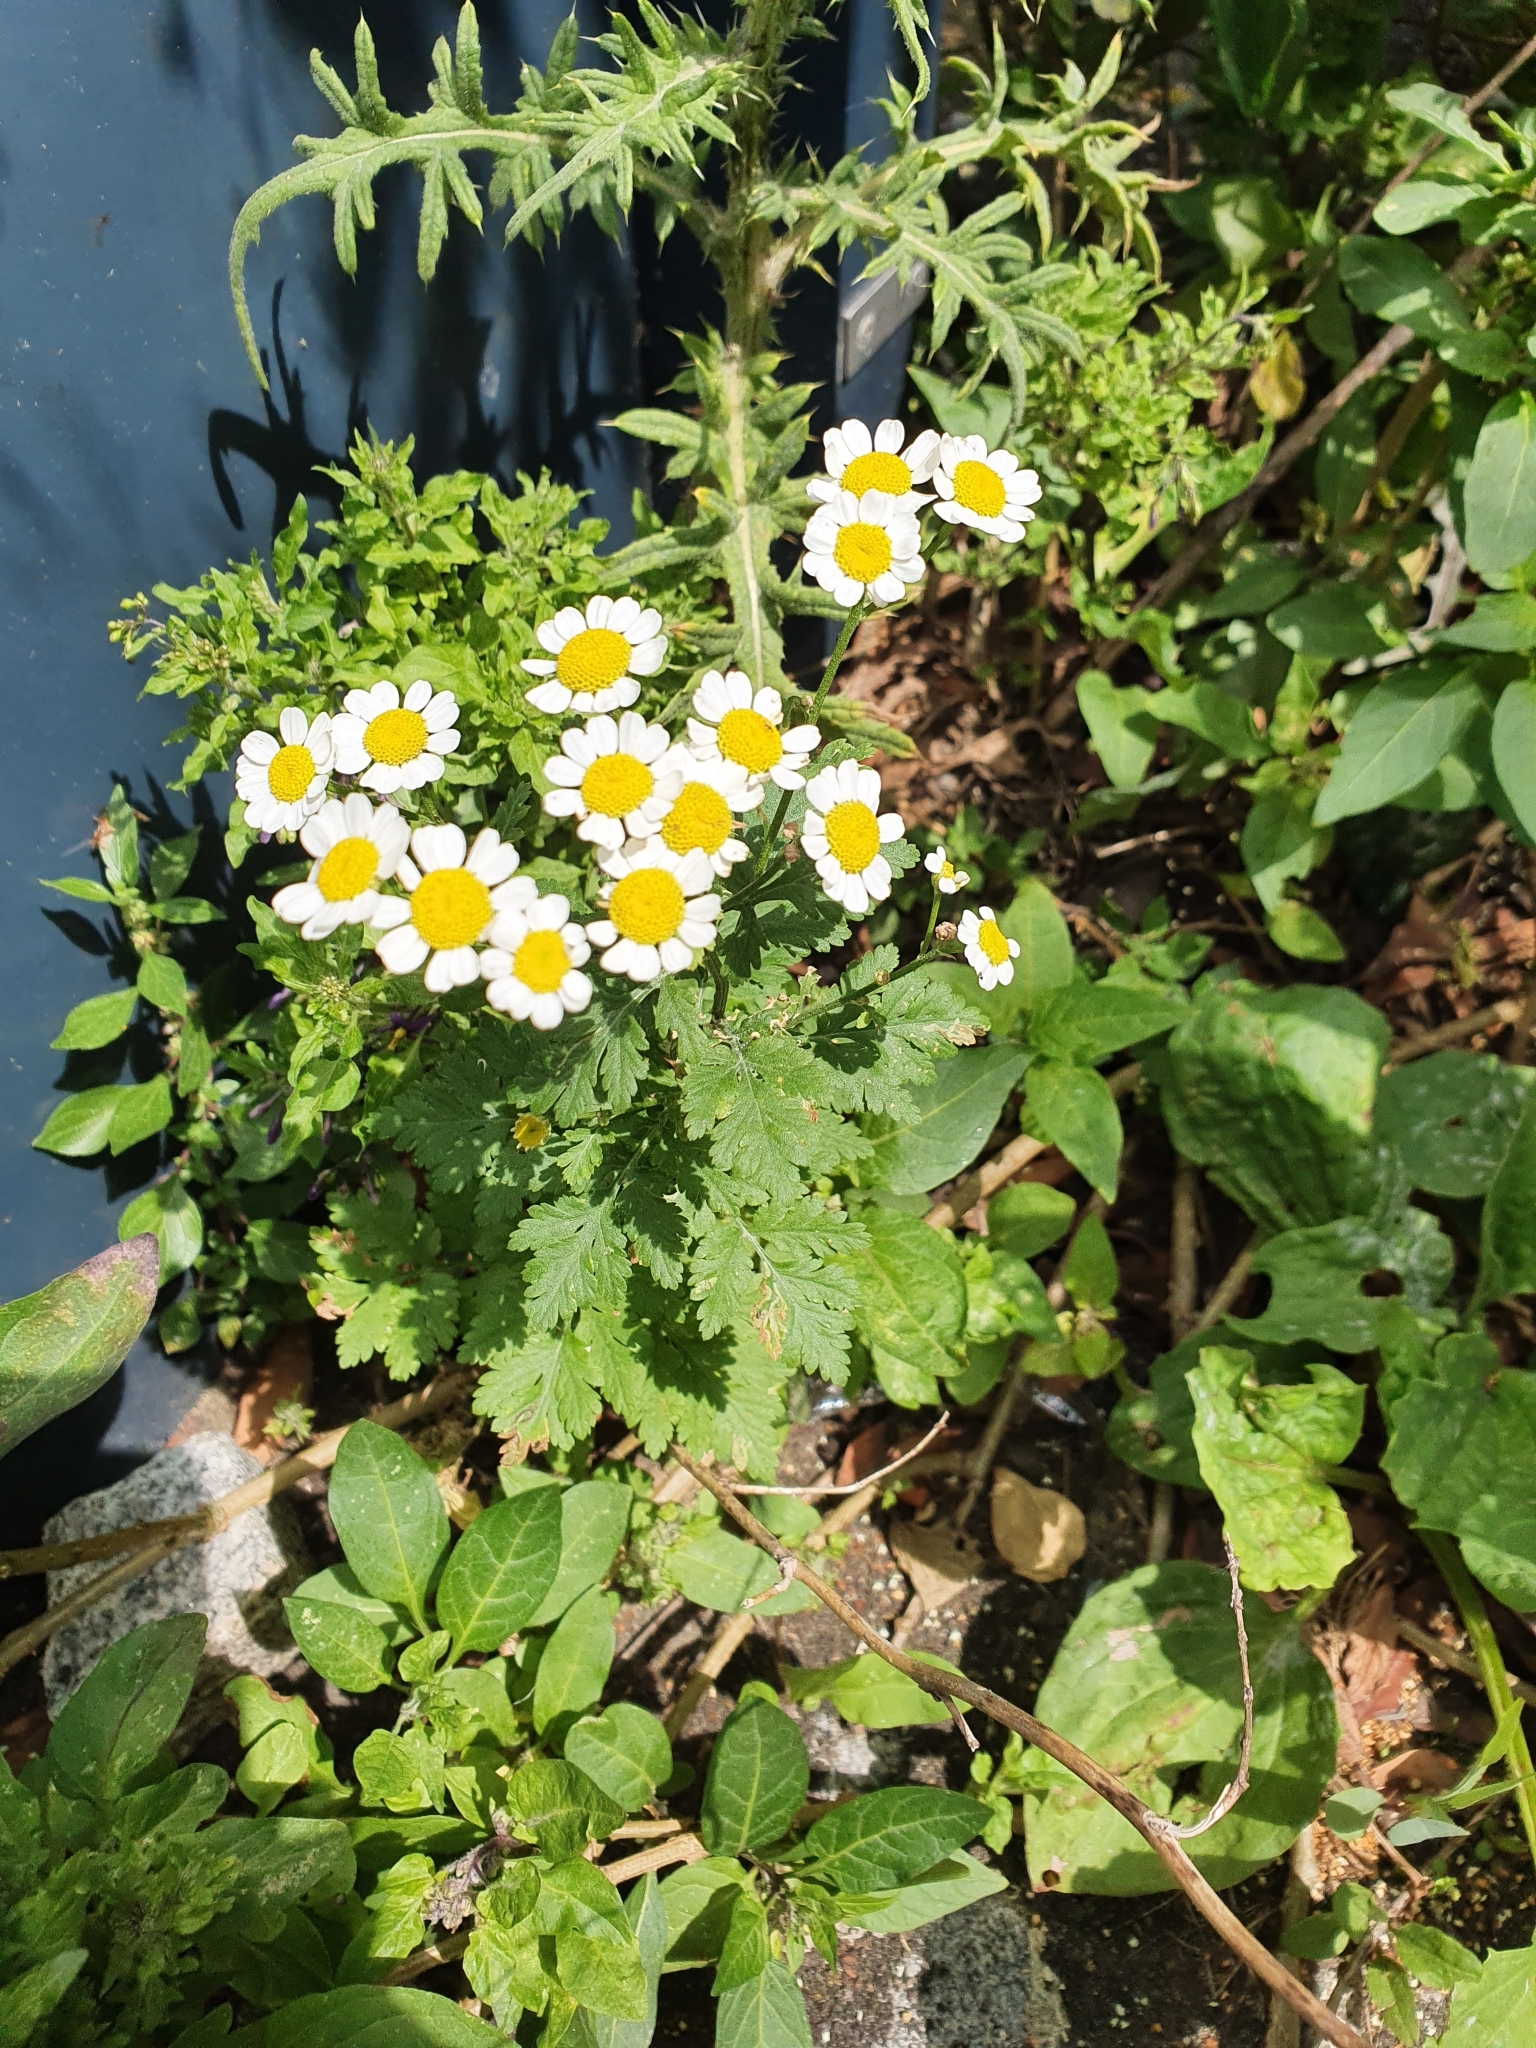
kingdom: Plantae
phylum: Tracheophyta
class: Magnoliopsida
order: Asterales
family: Asteraceae
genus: Tanacetum
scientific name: Tanacetum parthenium
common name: Feverfew
